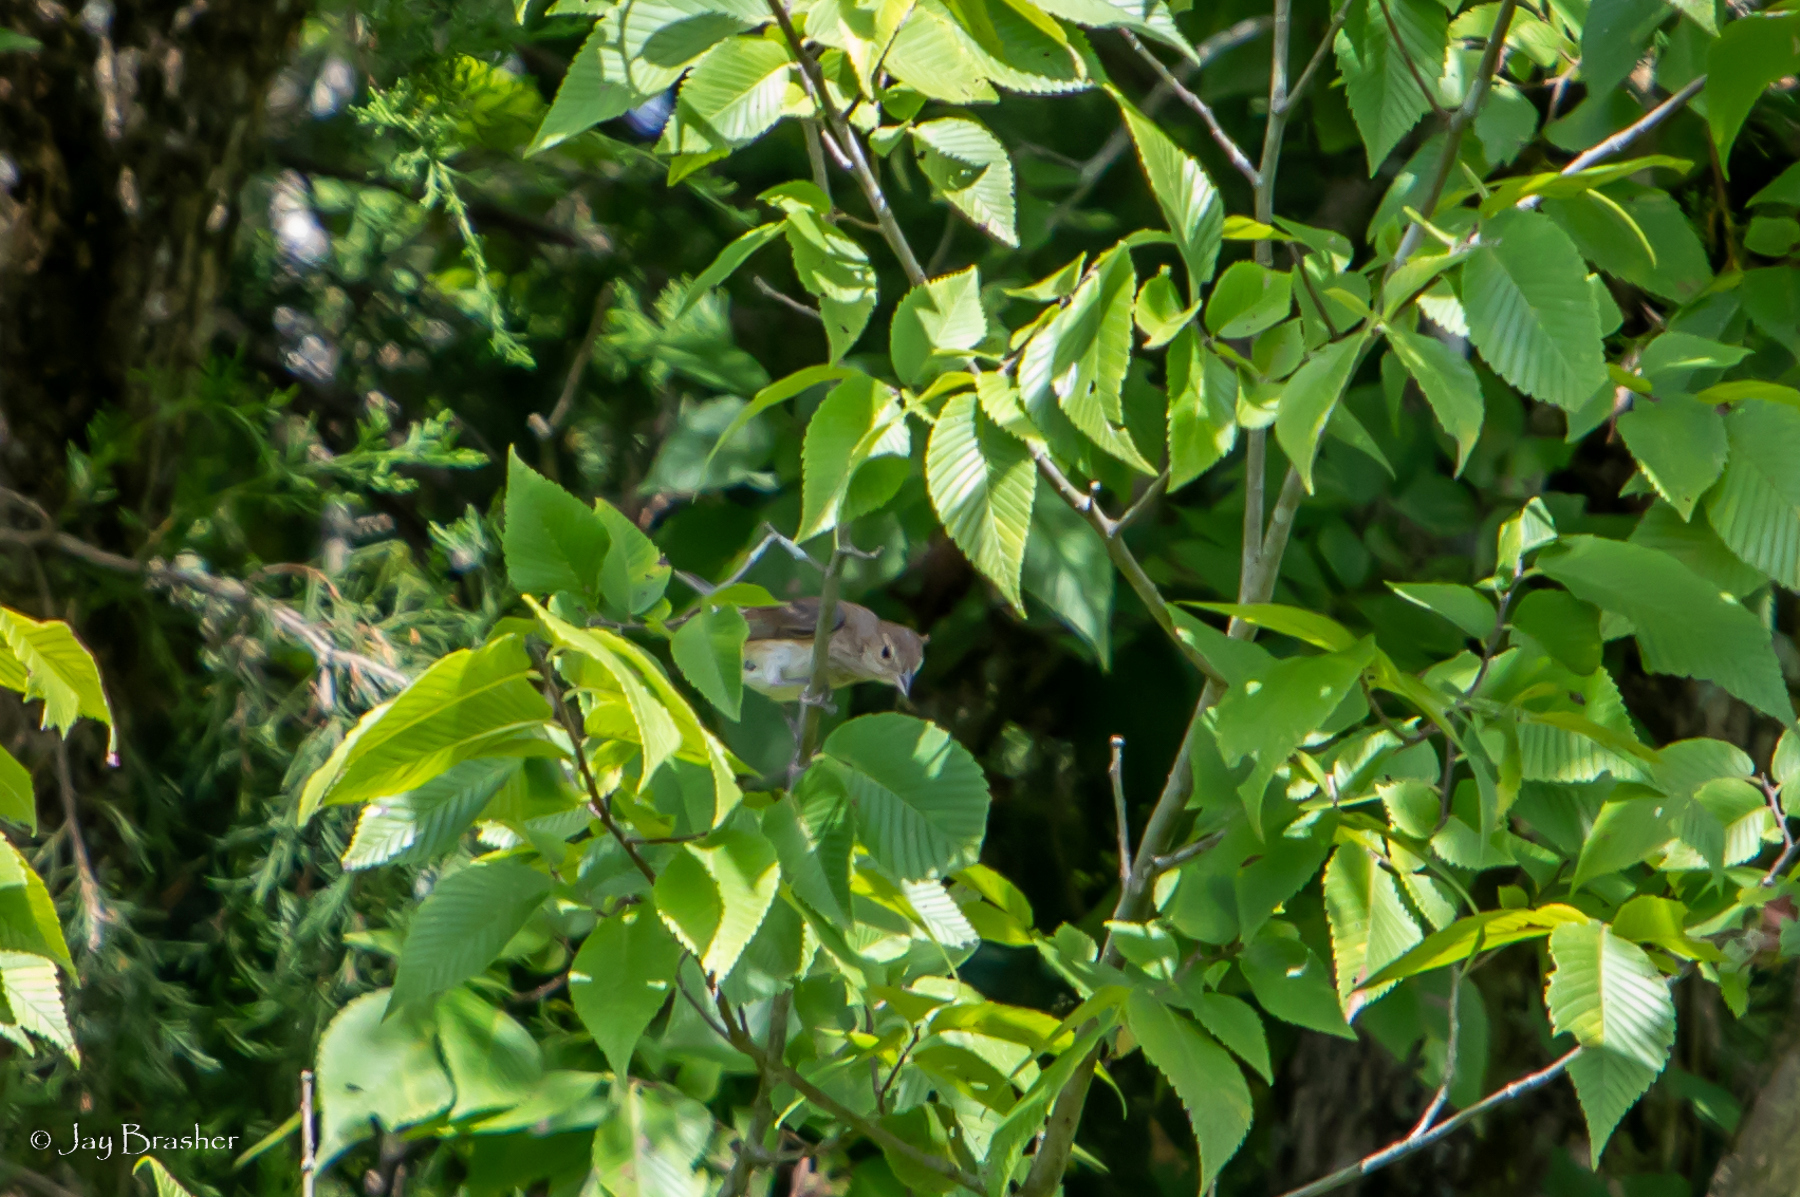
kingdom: Animalia
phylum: Chordata
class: Aves
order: Passeriformes
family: Cardinalidae
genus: Passerina
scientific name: Passerina cyanea
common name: Indigo bunting
